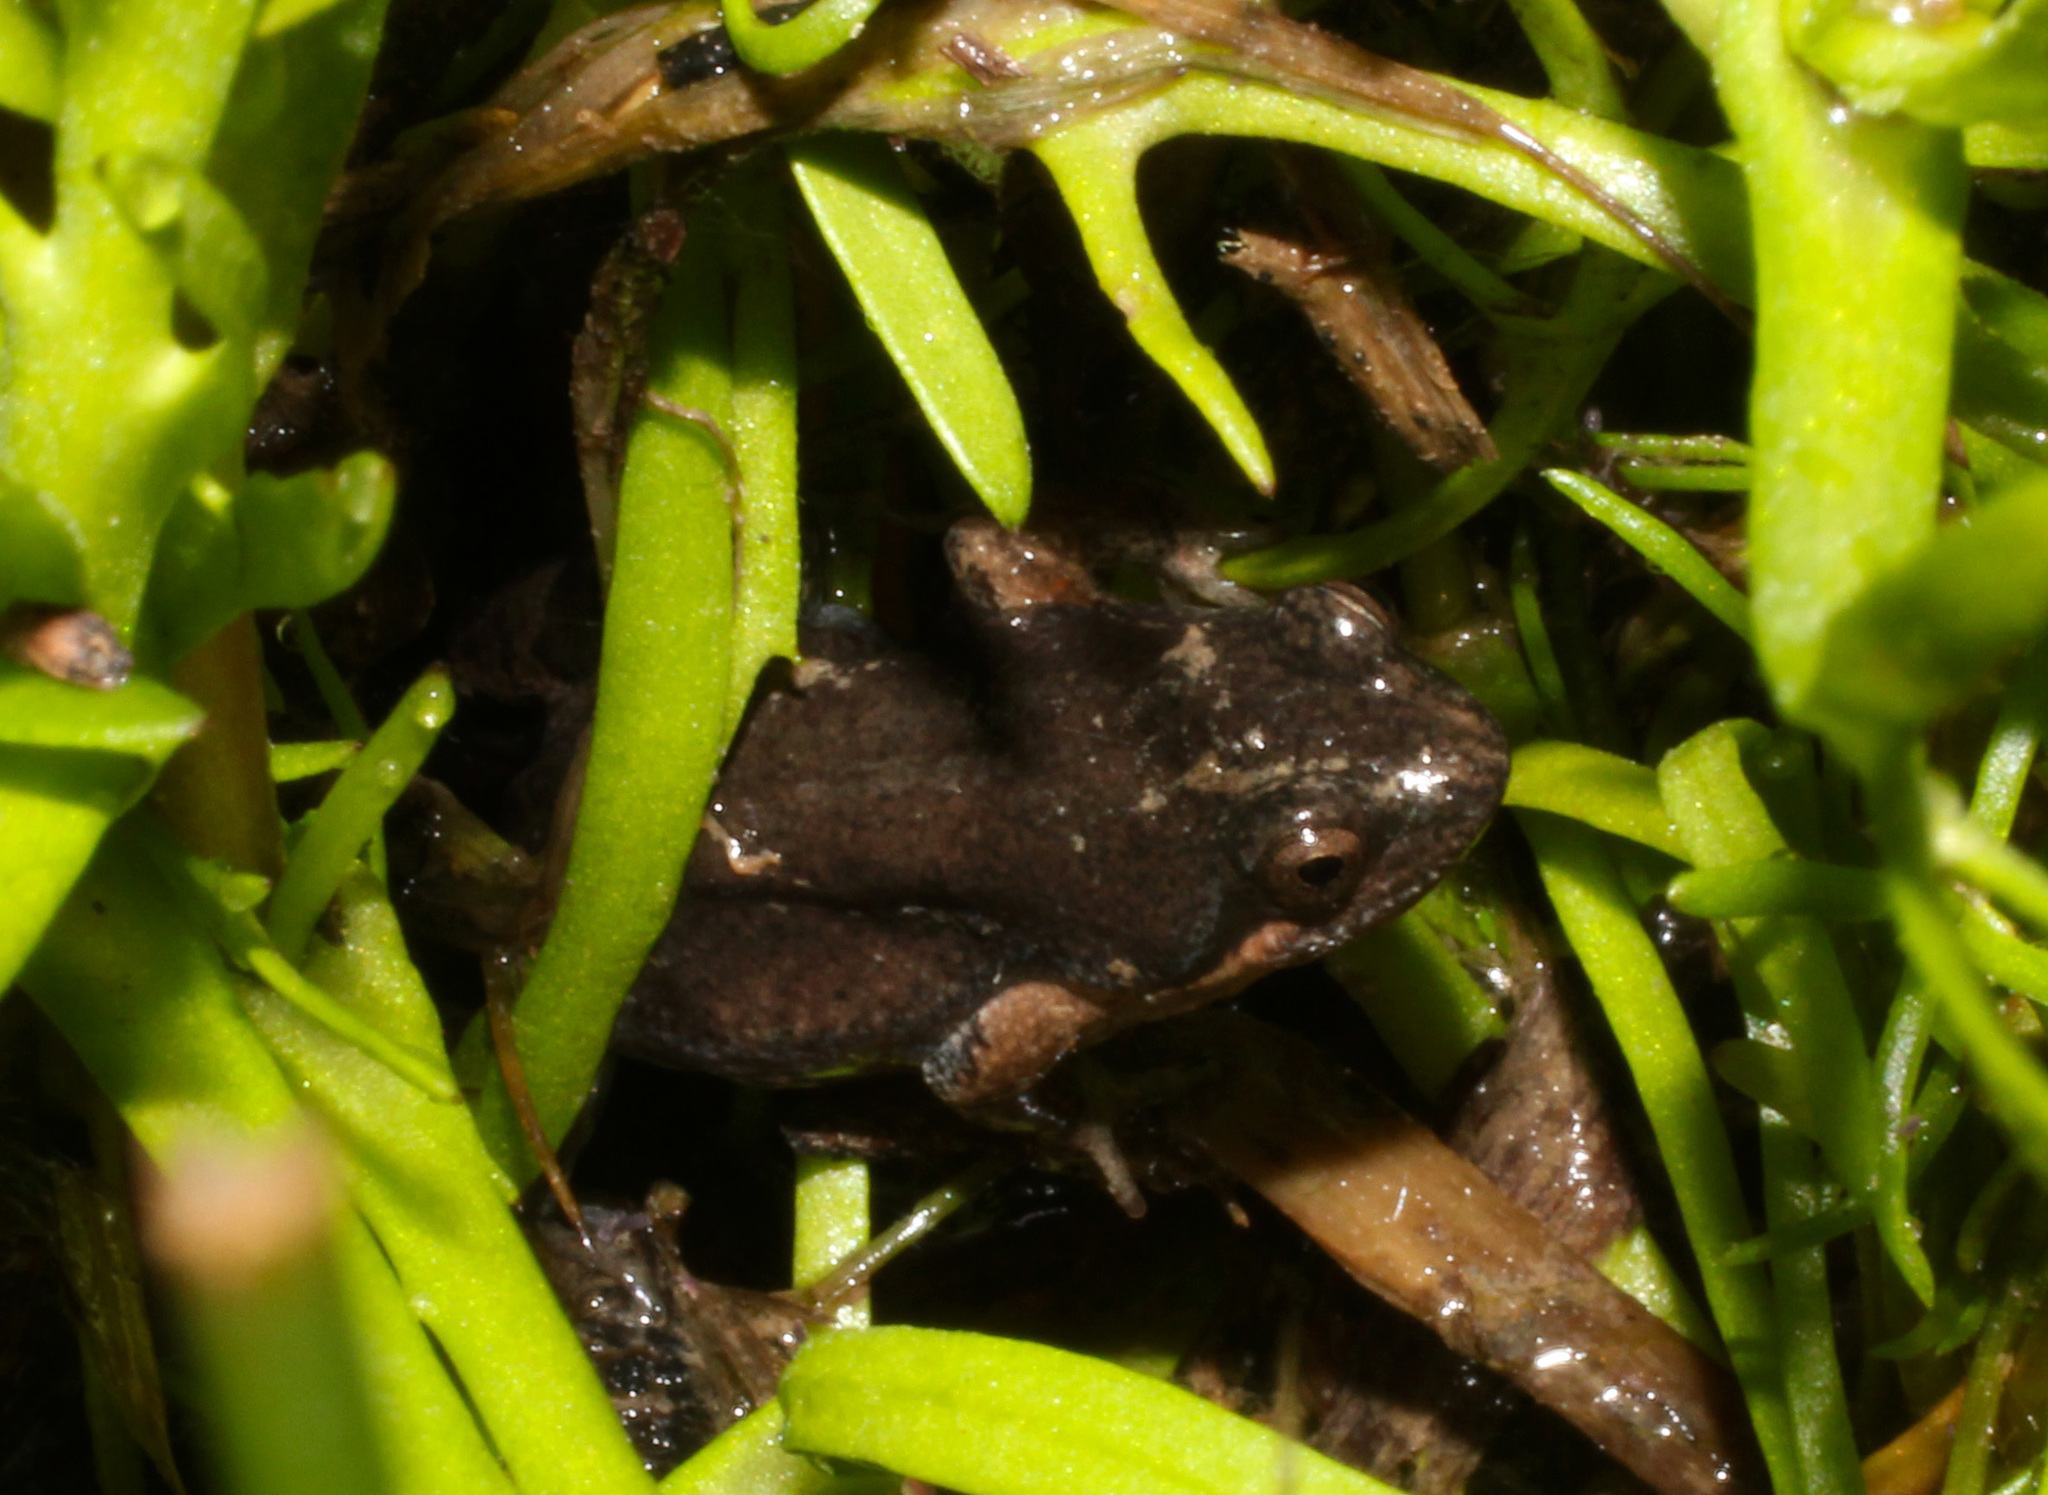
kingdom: Animalia
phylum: Chordata
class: Amphibia
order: Anura
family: Pyxicephalidae
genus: Cacosternum
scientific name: Cacosternum aggestum
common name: Klipheuwel dainty frog
